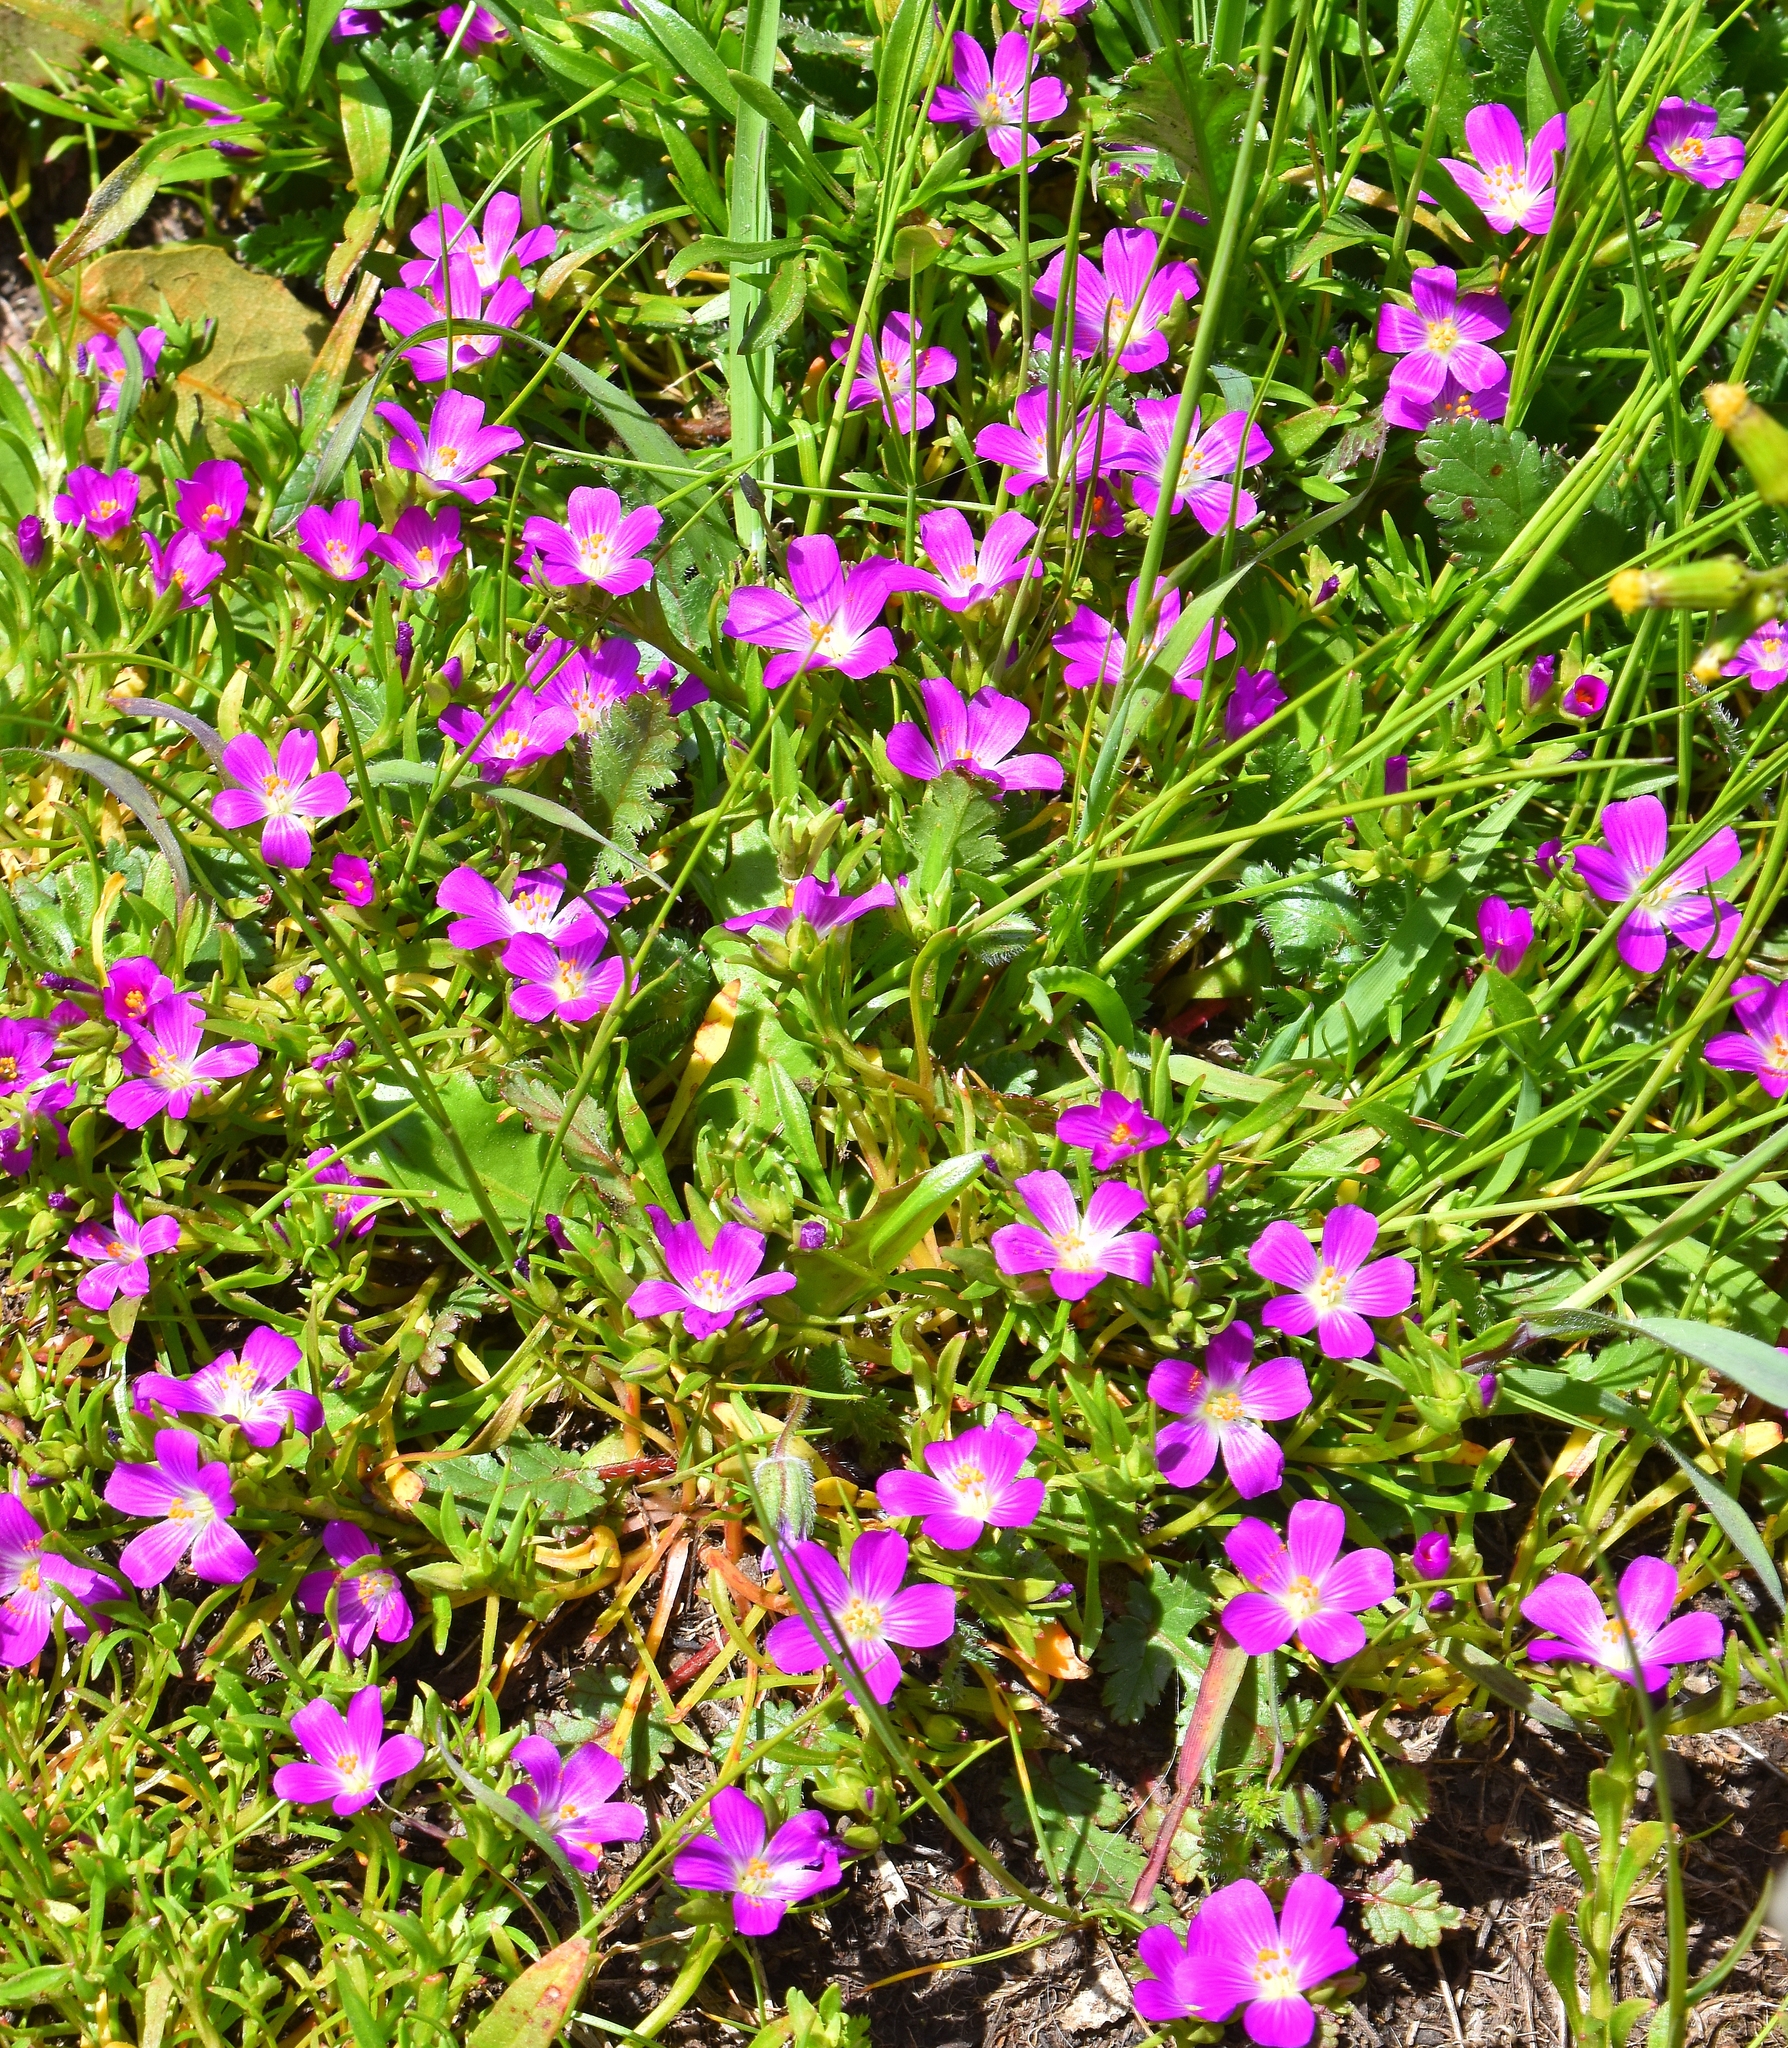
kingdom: Plantae
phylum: Tracheophyta
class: Magnoliopsida
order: Caryophyllales
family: Montiaceae
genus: Calandrinia
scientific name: Calandrinia menziesii
